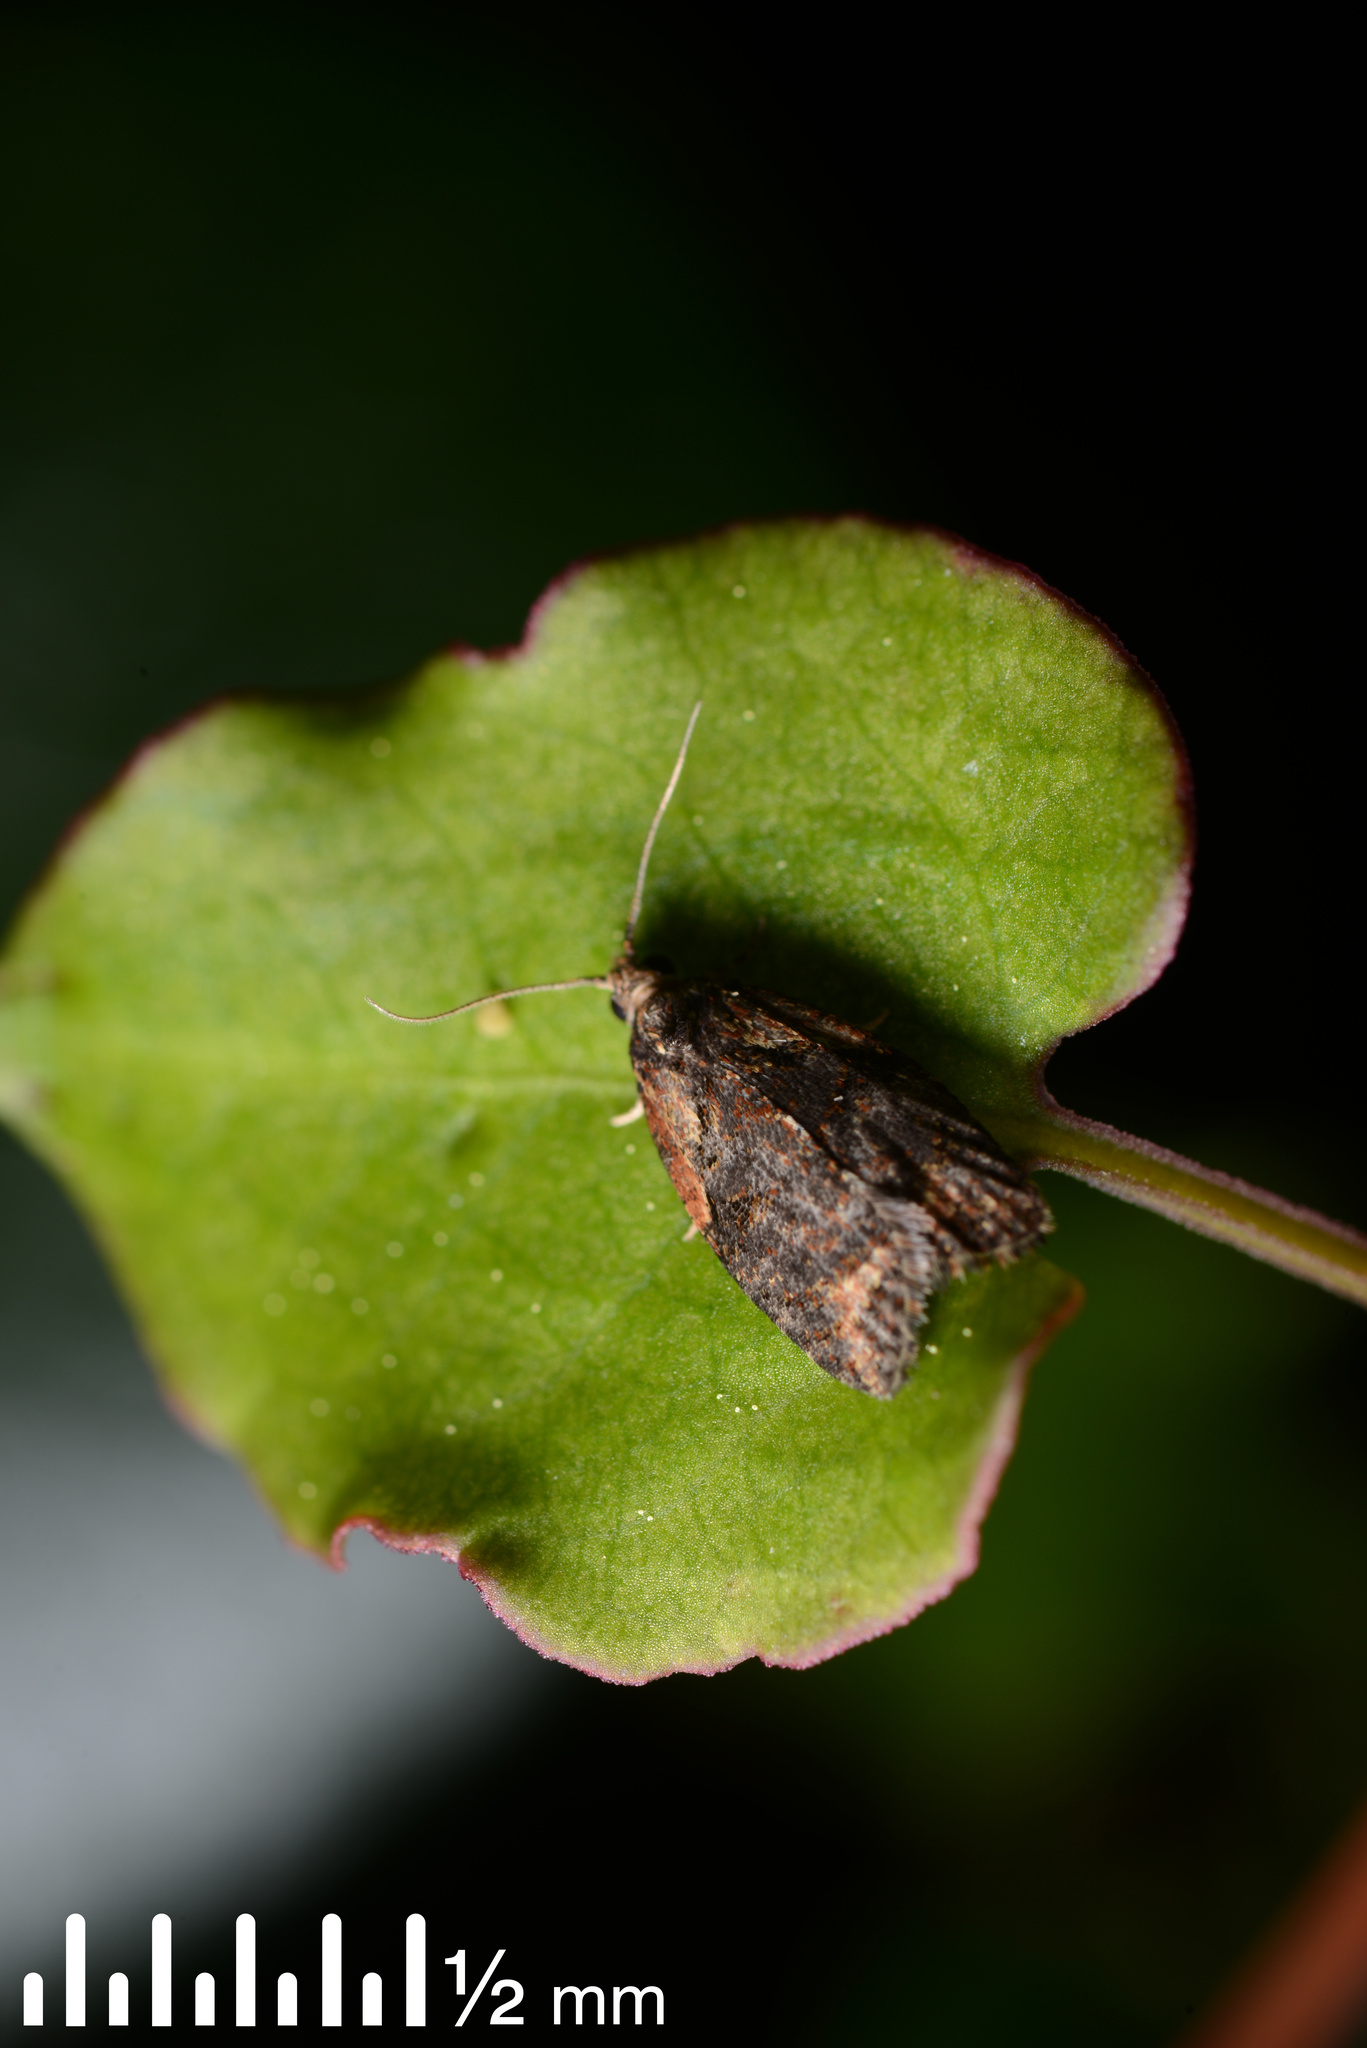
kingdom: Animalia
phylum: Arthropoda
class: Insecta
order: Lepidoptera
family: Tortricidae
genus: Capua
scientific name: Capua intractana
